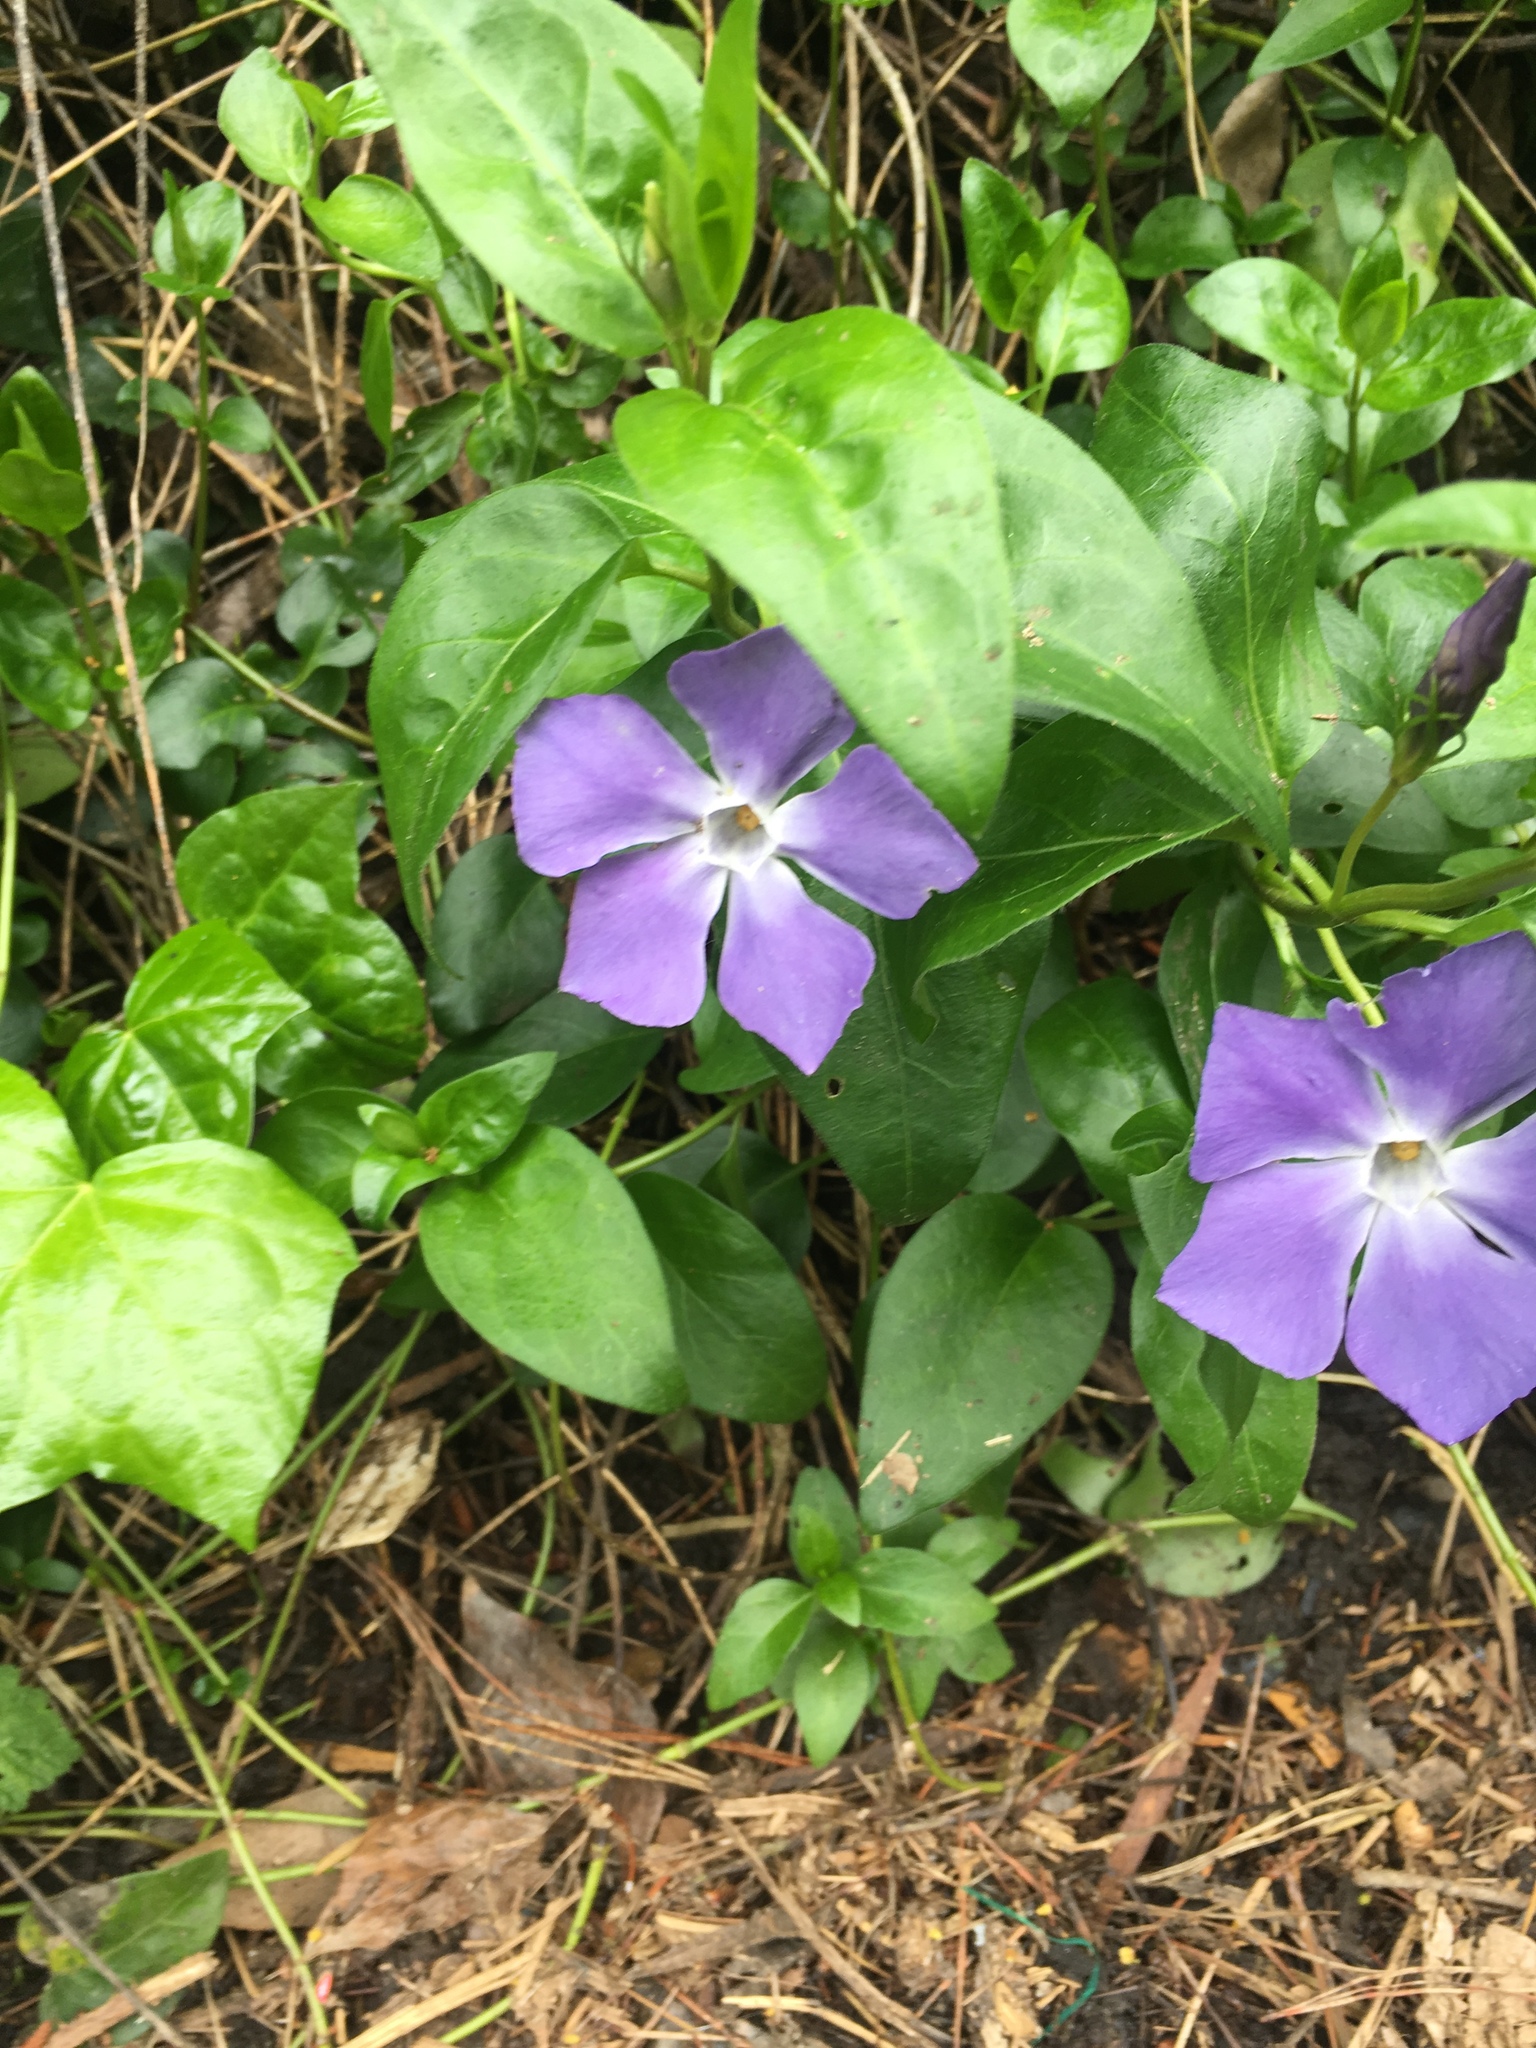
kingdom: Plantae
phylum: Tracheophyta
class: Magnoliopsida
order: Gentianales
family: Apocynaceae
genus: Vinca
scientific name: Vinca major
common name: Greater periwinkle
